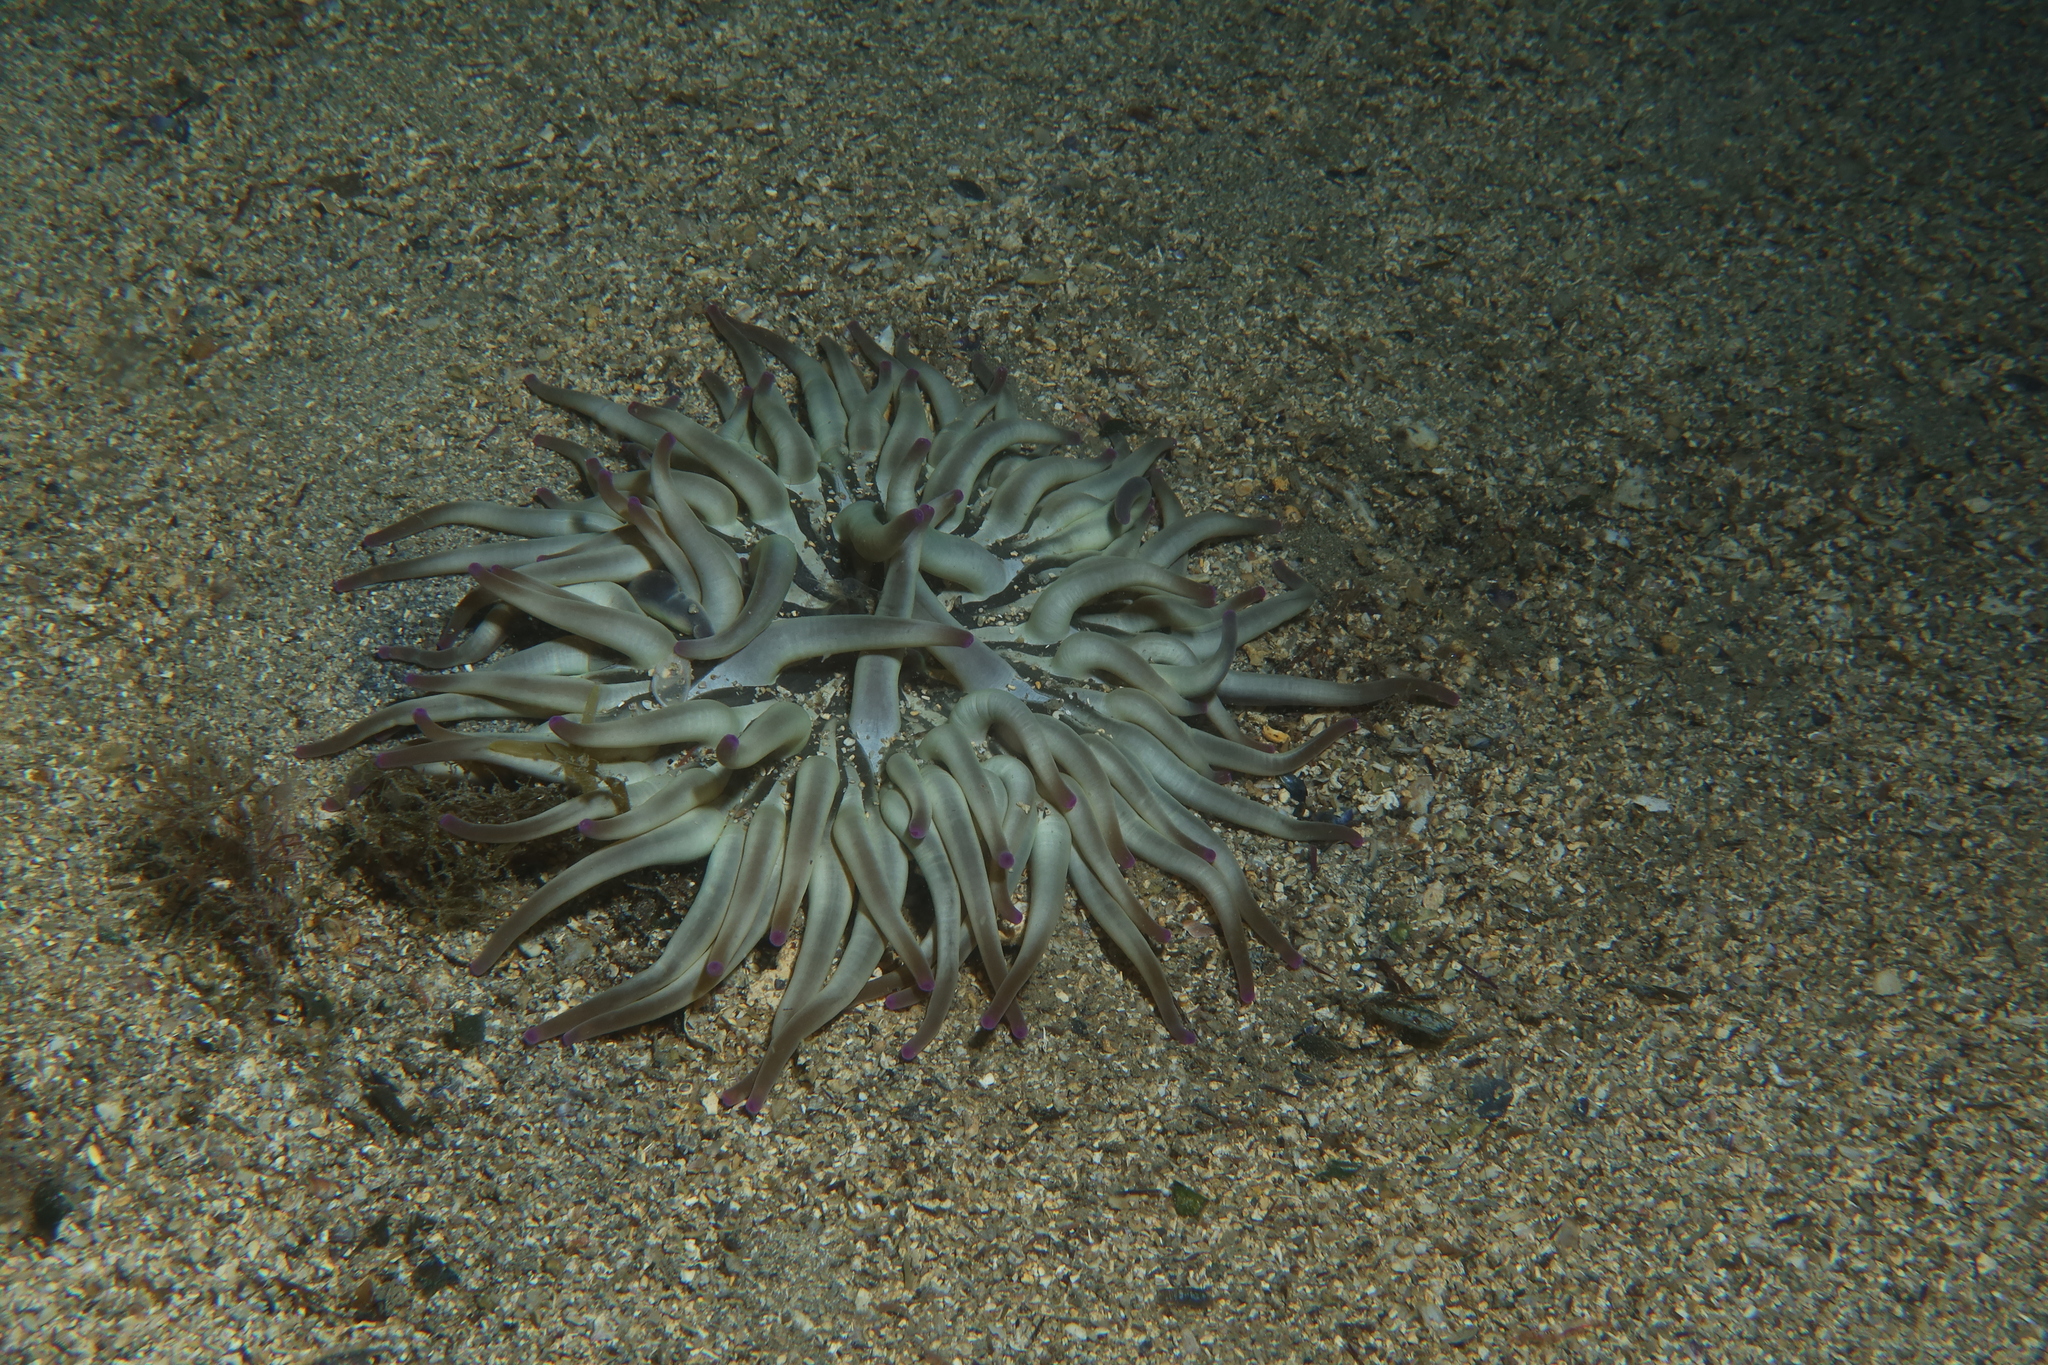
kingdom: Animalia
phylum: Cnidaria
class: Anthozoa
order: Actiniaria
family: Actiniidae
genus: Condylactis
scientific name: Condylactis aurantiaca
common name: Golden anemone
